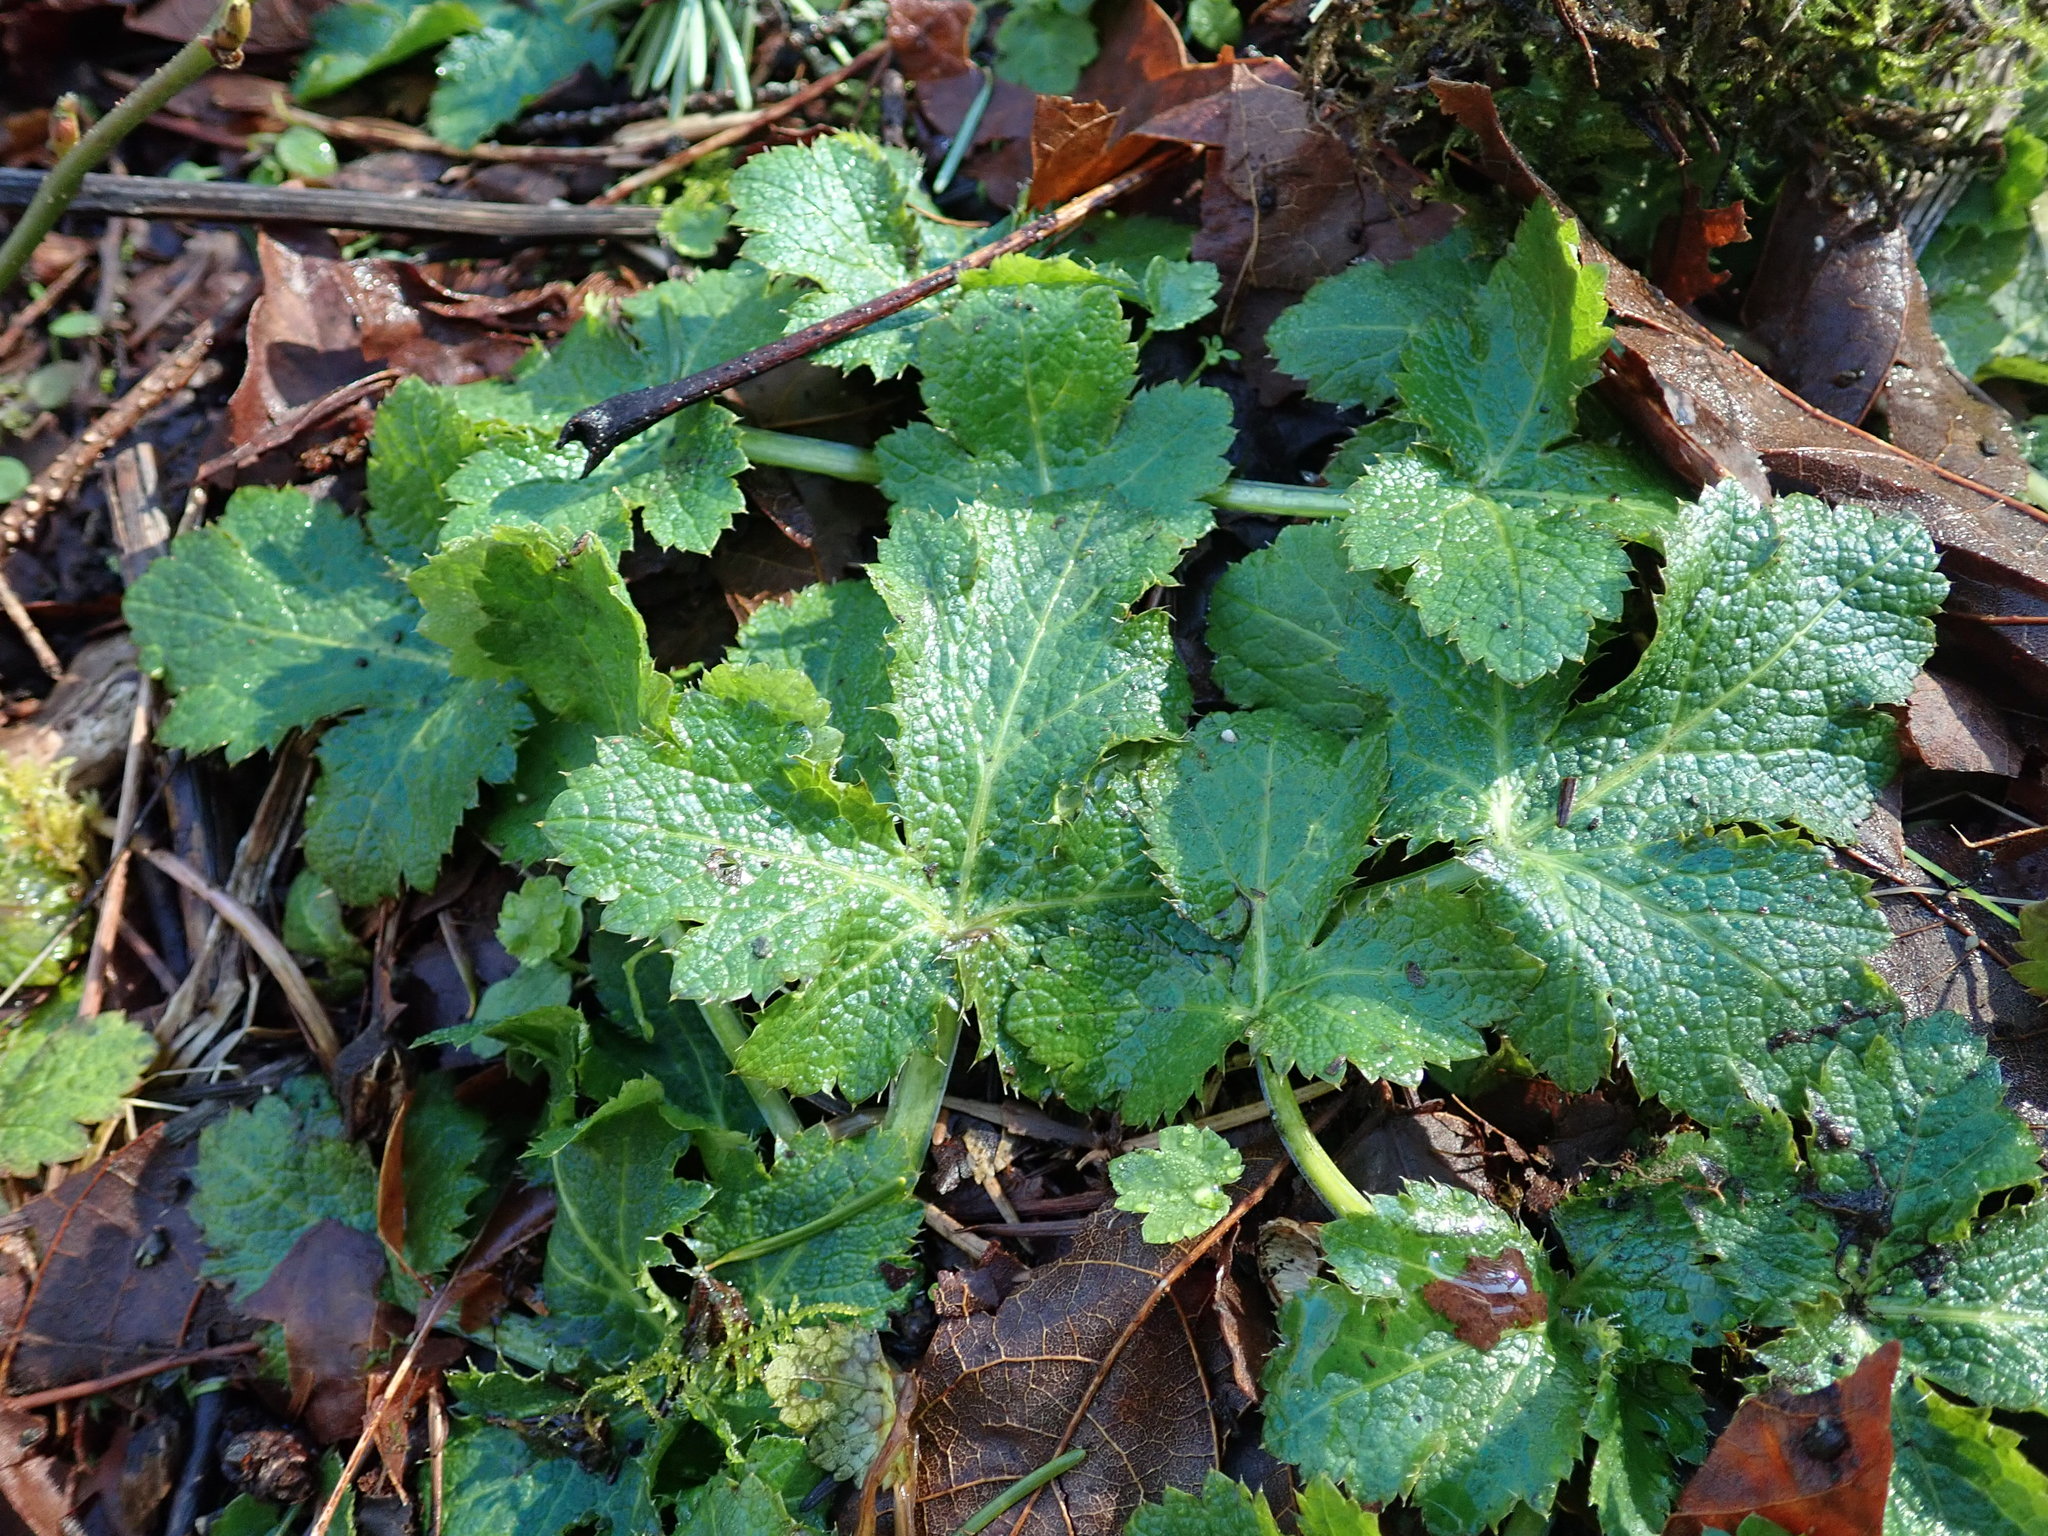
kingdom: Plantae
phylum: Tracheophyta
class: Magnoliopsida
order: Apiales
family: Apiaceae
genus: Sanicula
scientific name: Sanicula crassicaulis
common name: Western snakeroot
